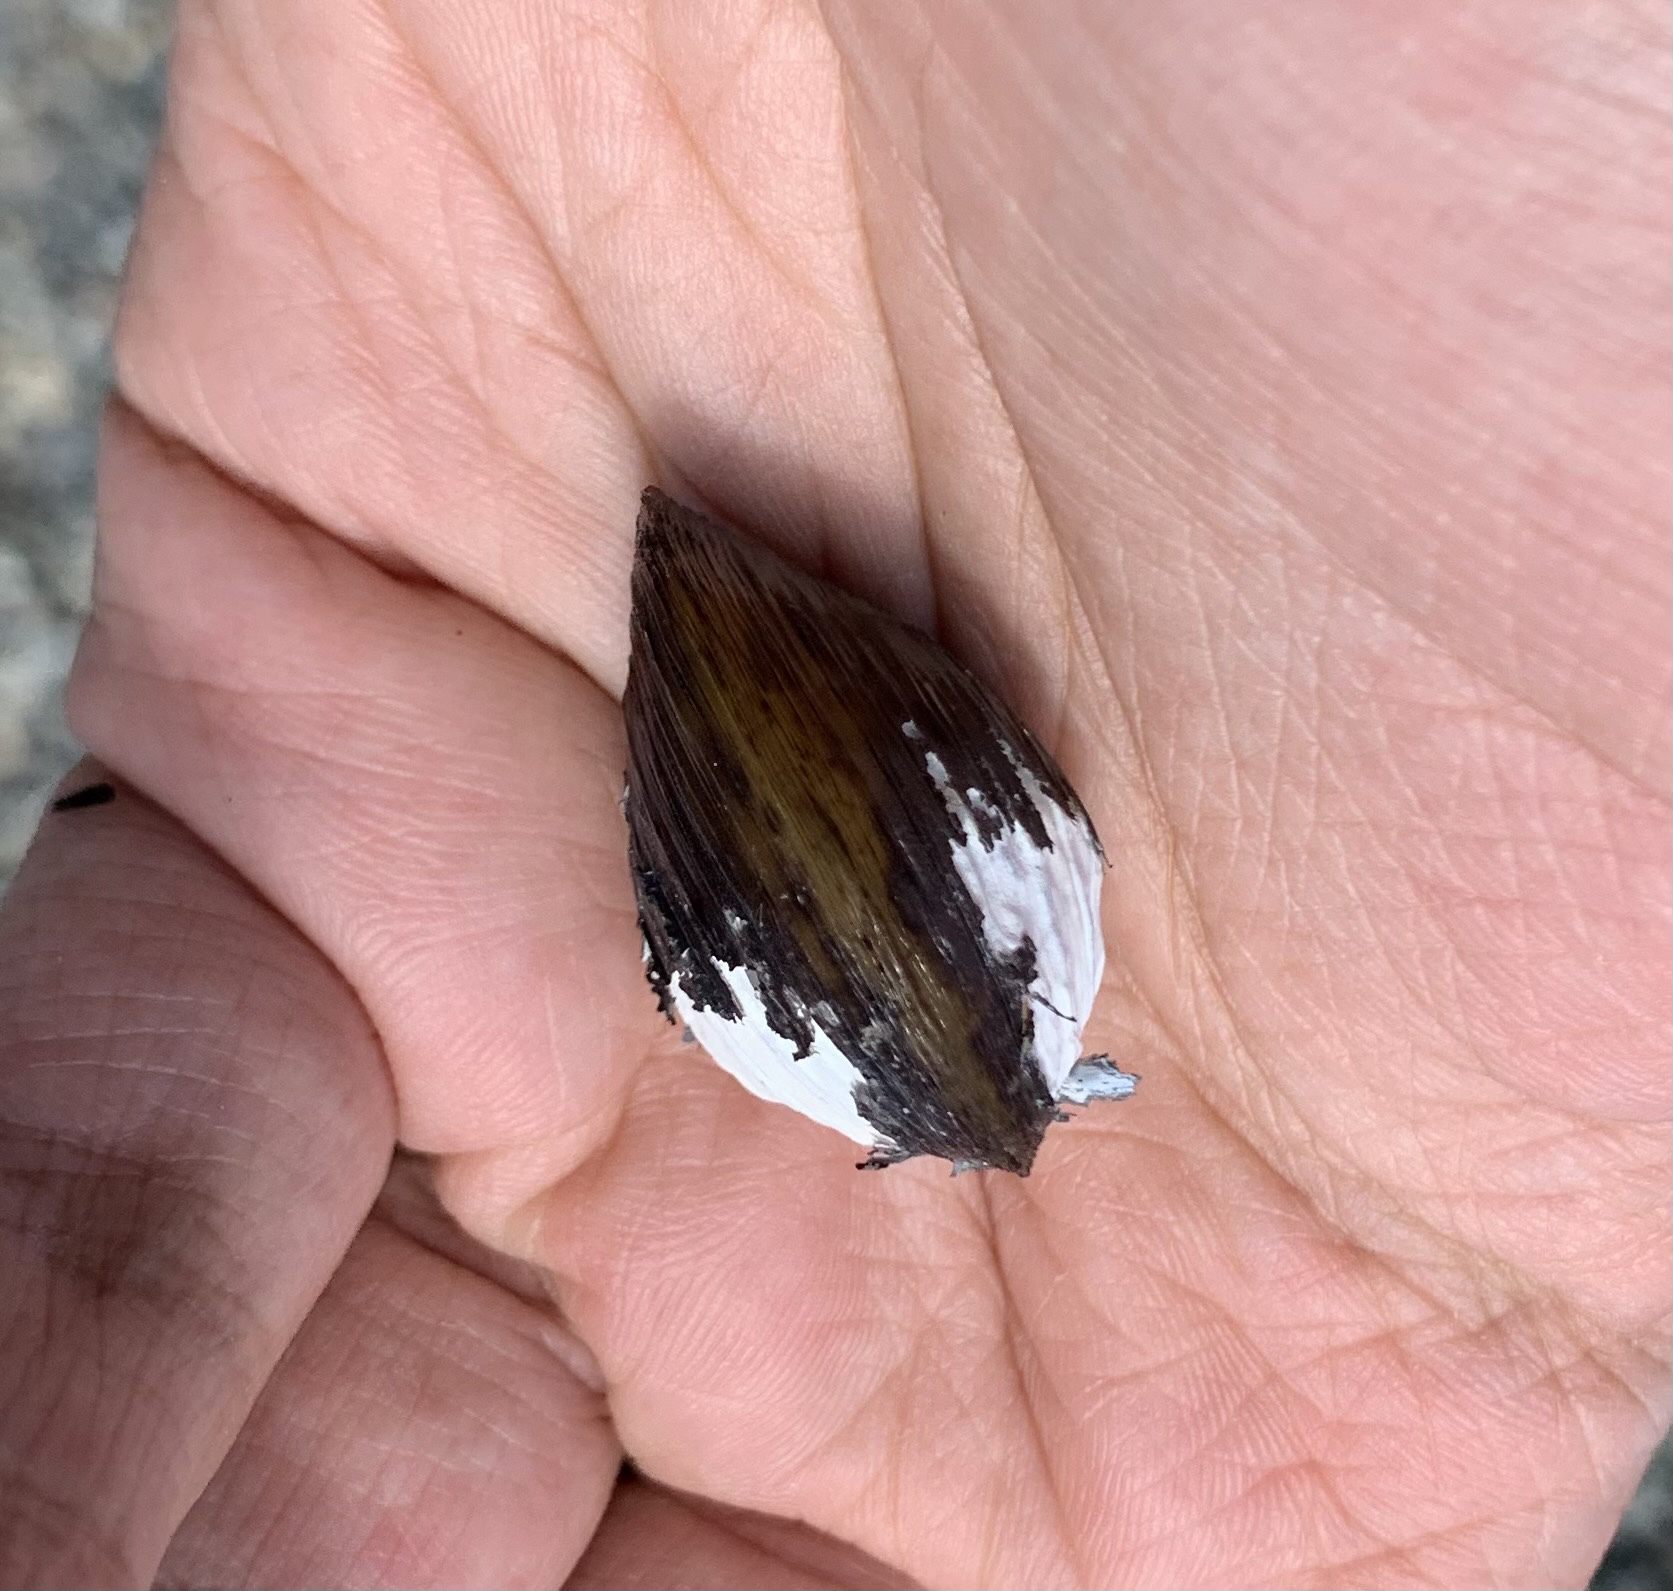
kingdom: Animalia
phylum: Mollusca
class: Bivalvia
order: Venerida
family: Cyrenidae
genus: Corbicula
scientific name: Corbicula fluminea
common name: Asian clam
